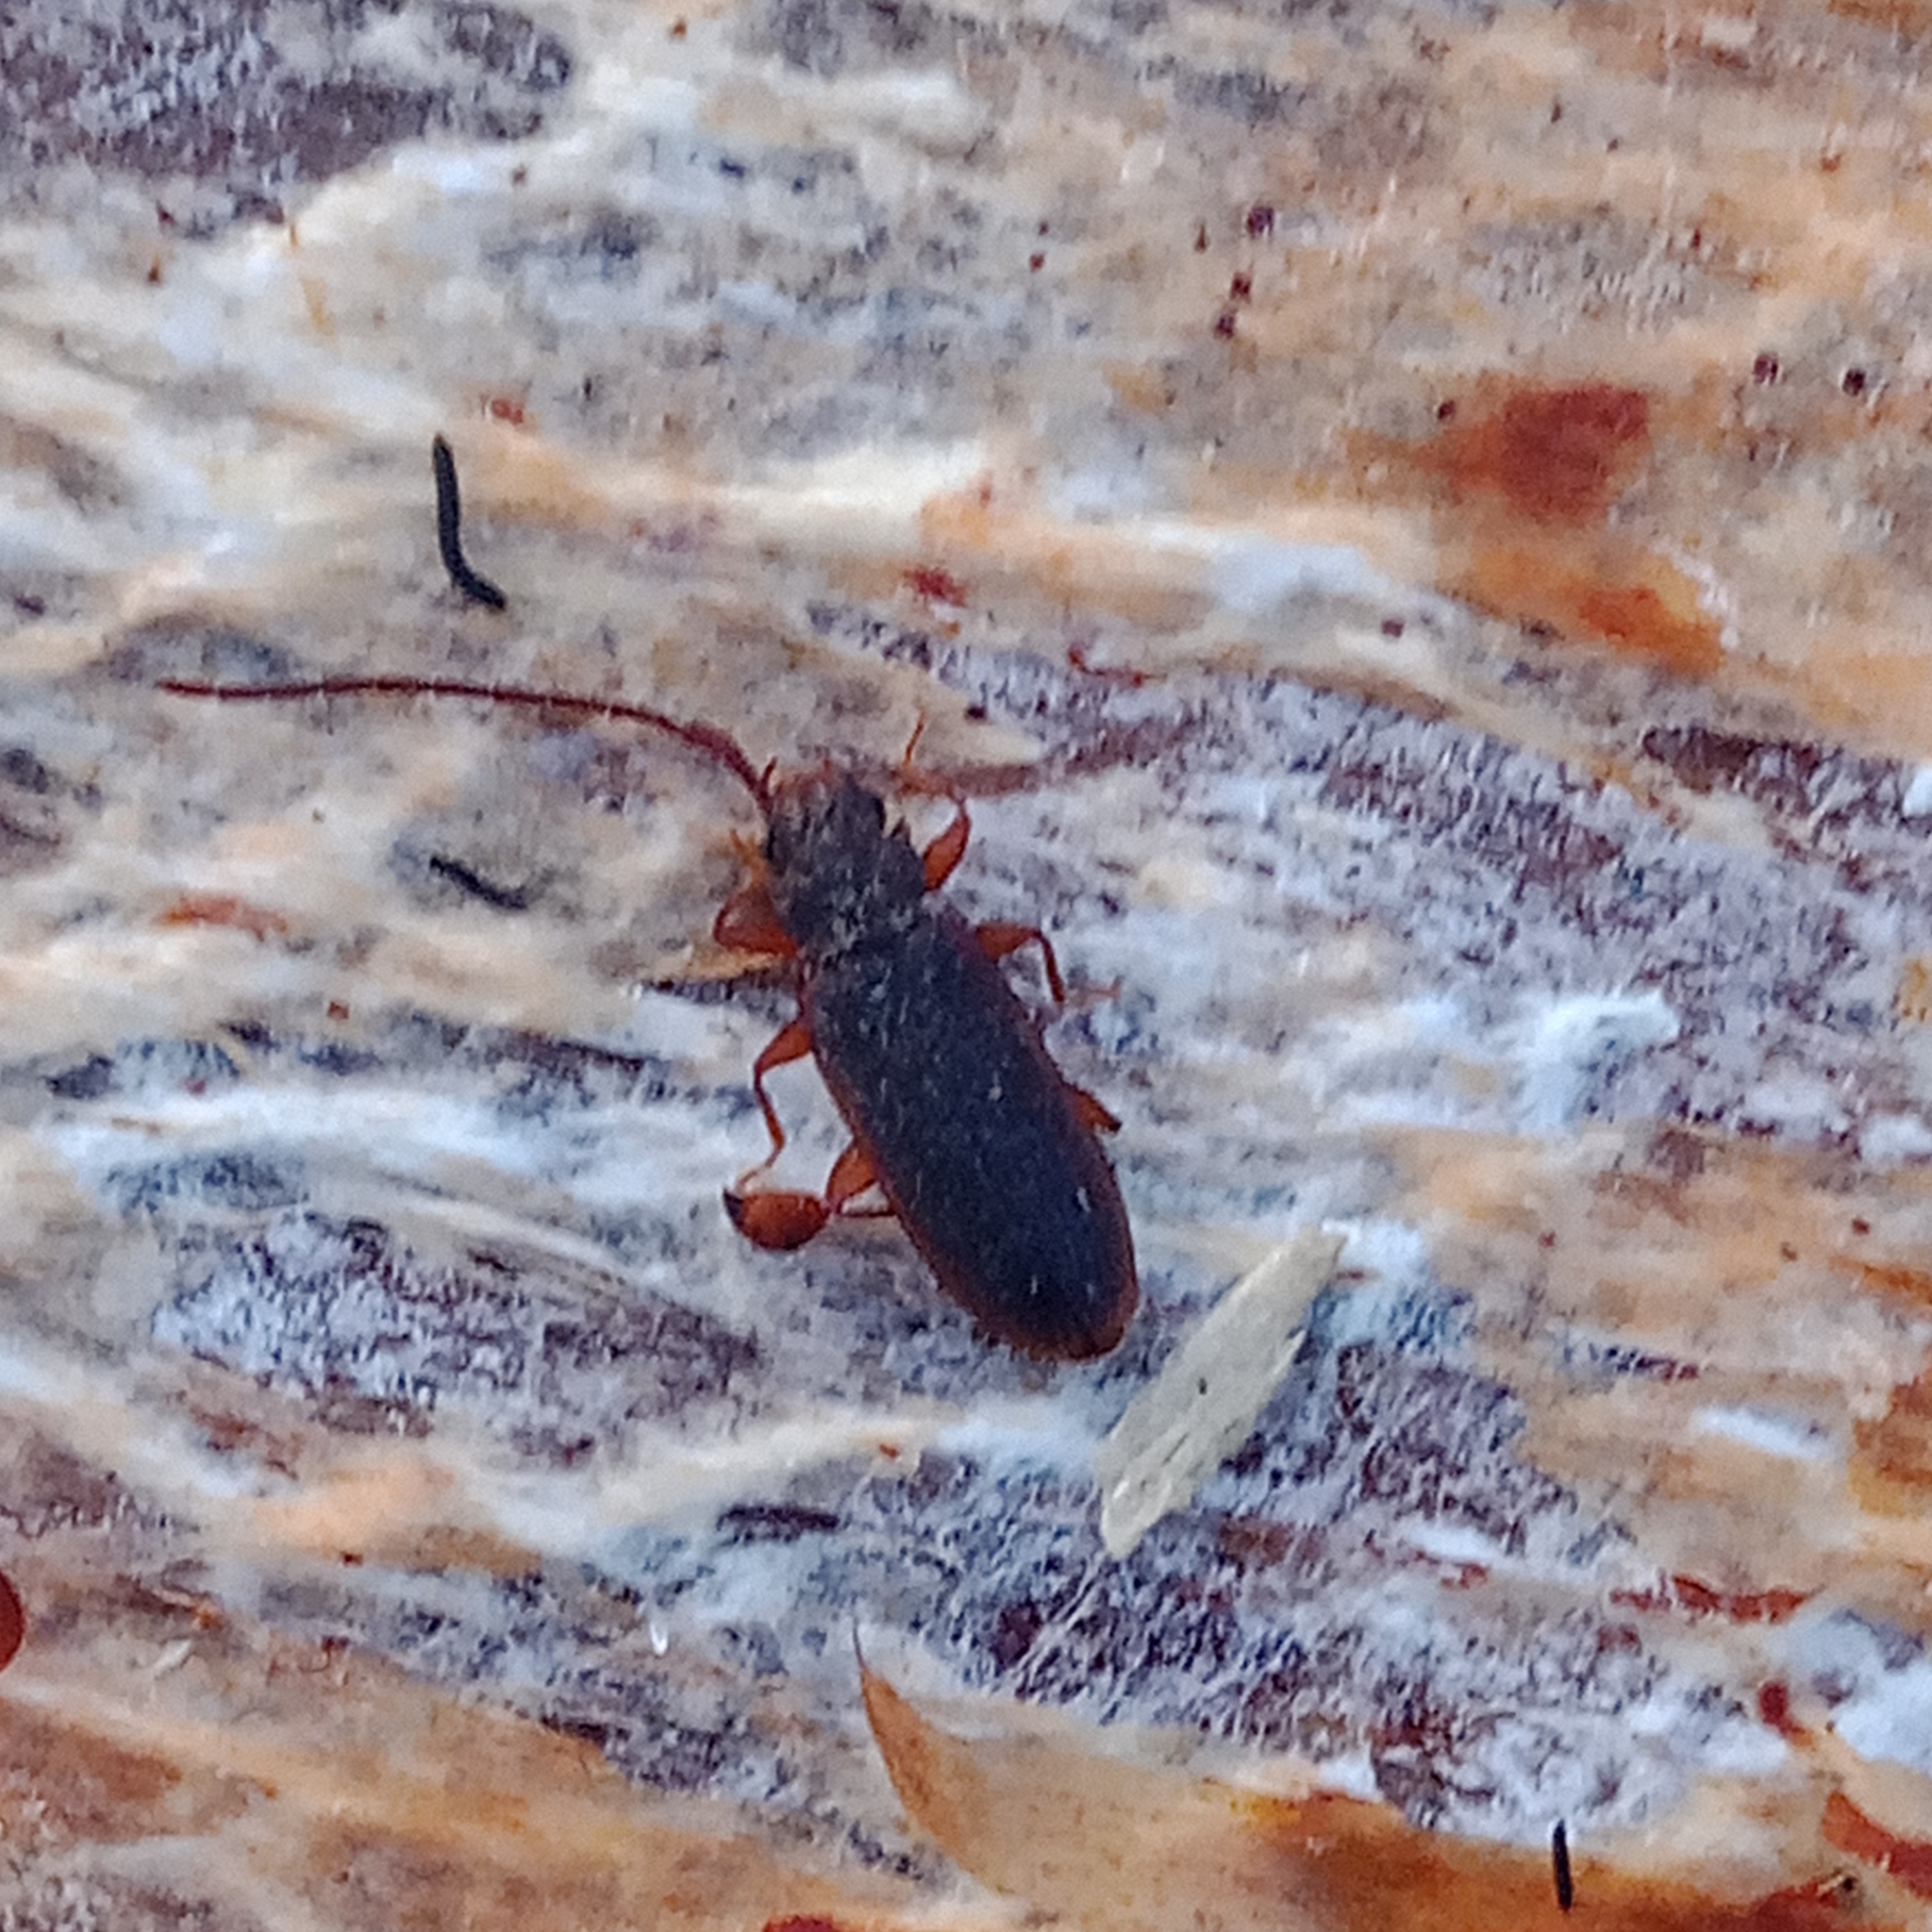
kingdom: Animalia
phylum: Arthropoda
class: Insecta
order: Coleoptera
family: Silvanidae
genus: Uleiota
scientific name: Uleiota planatus
